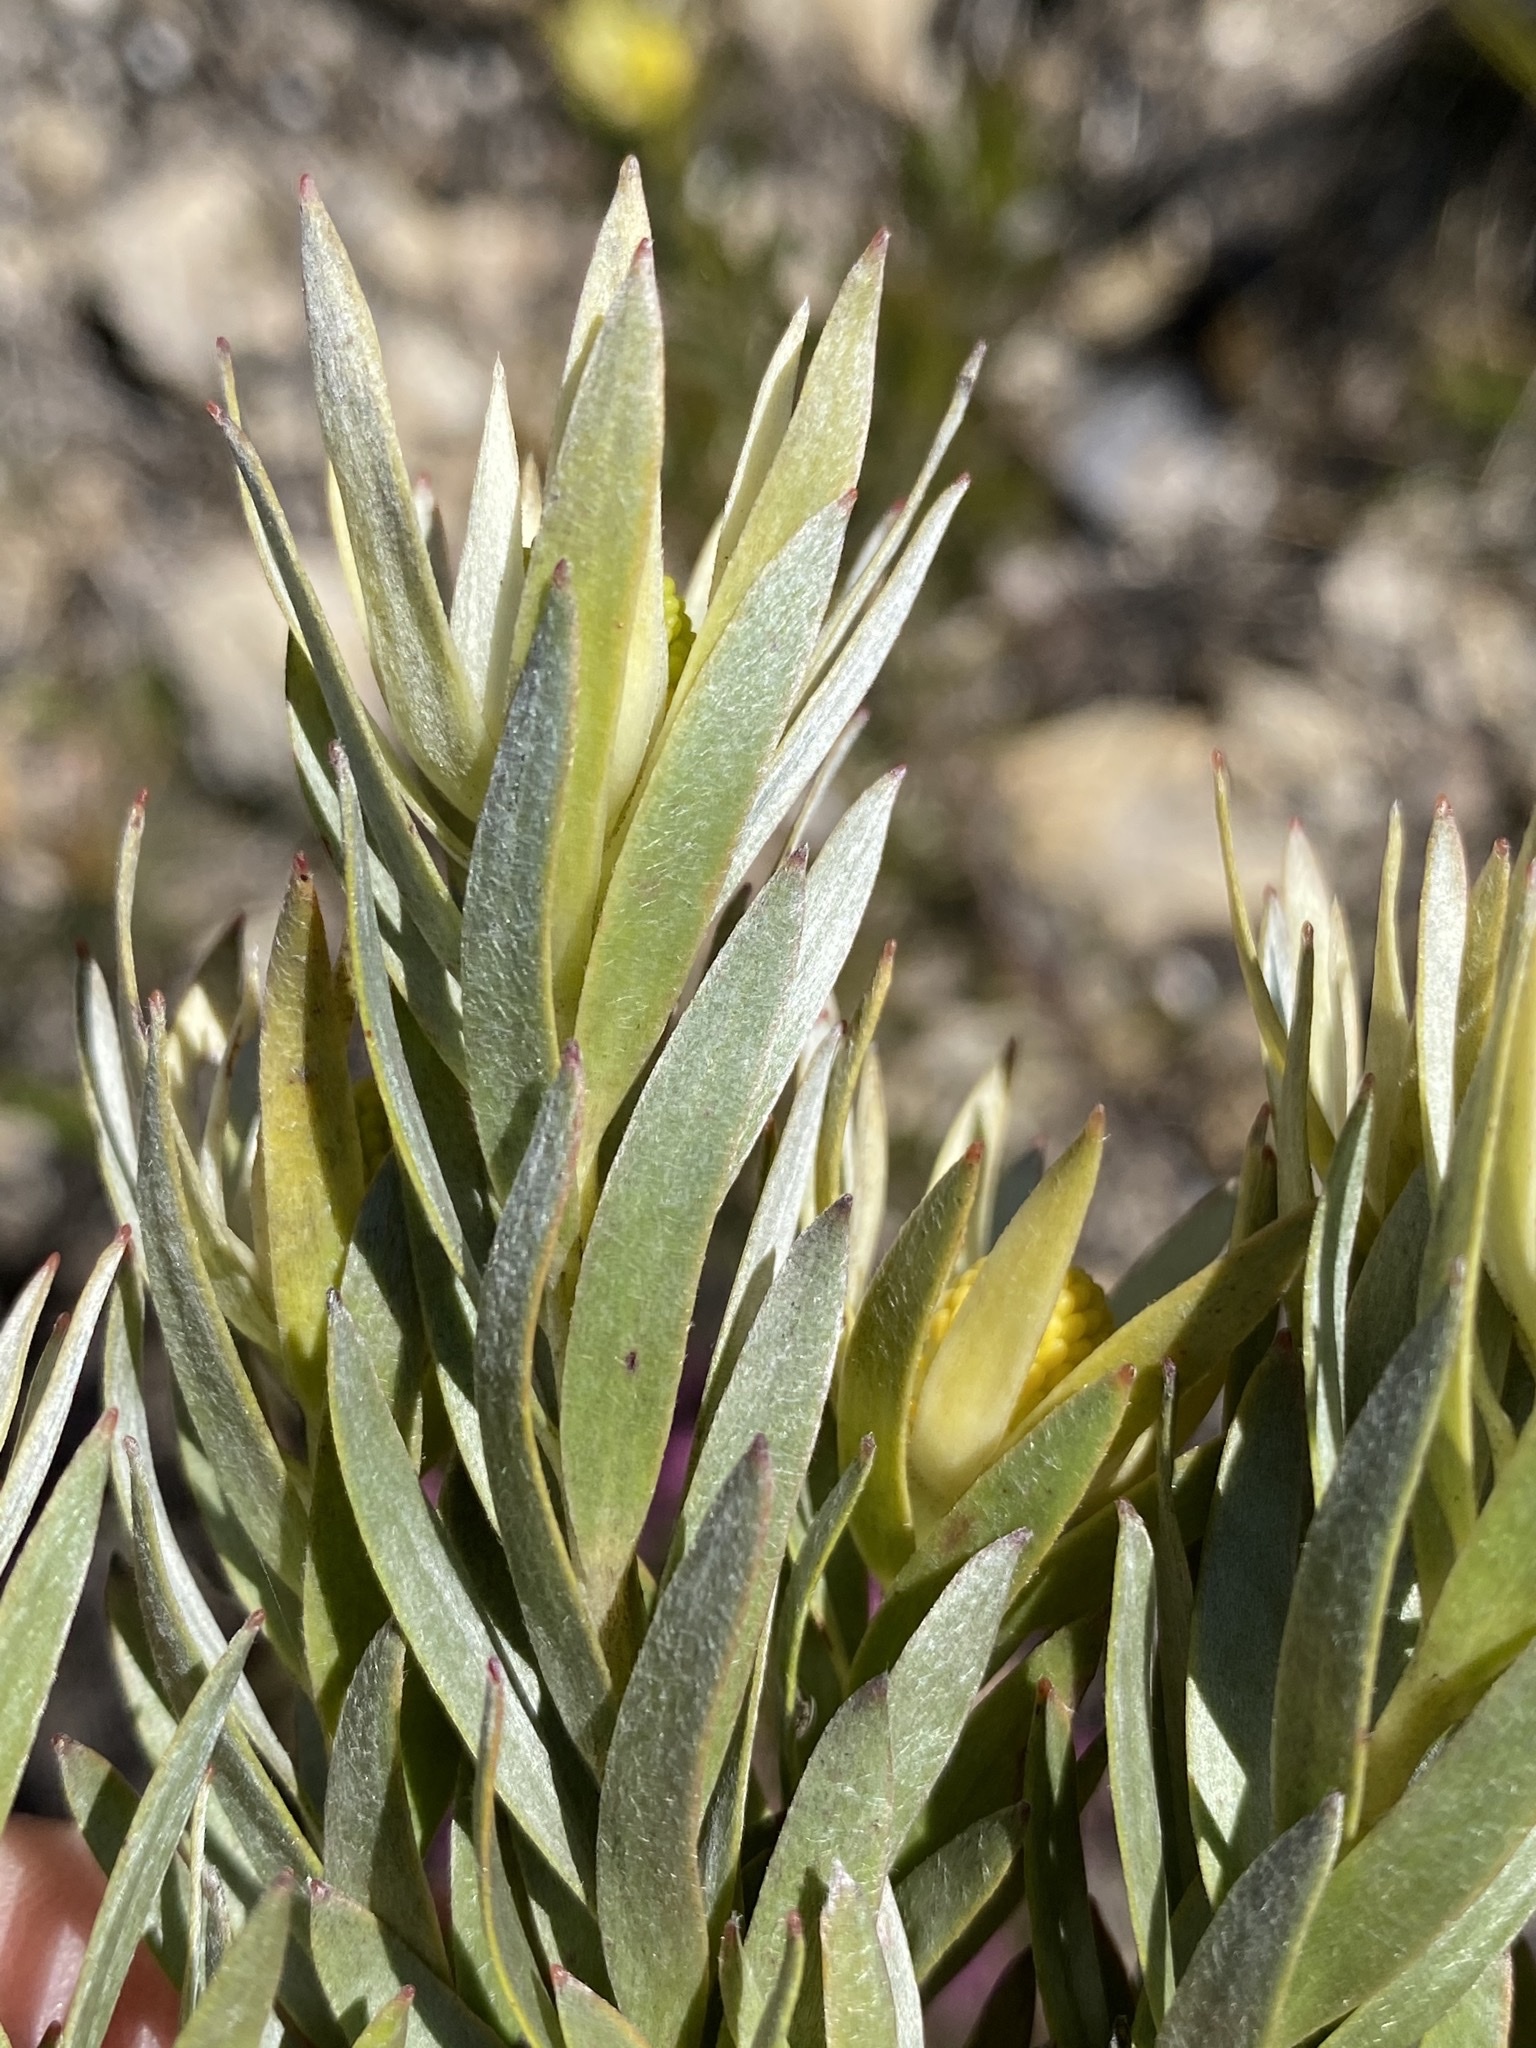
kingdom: Plantae
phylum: Tracheophyta
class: Magnoliopsida
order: Proteales
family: Proteaceae
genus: Leucadendron
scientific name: Leucadendron uliginosum
